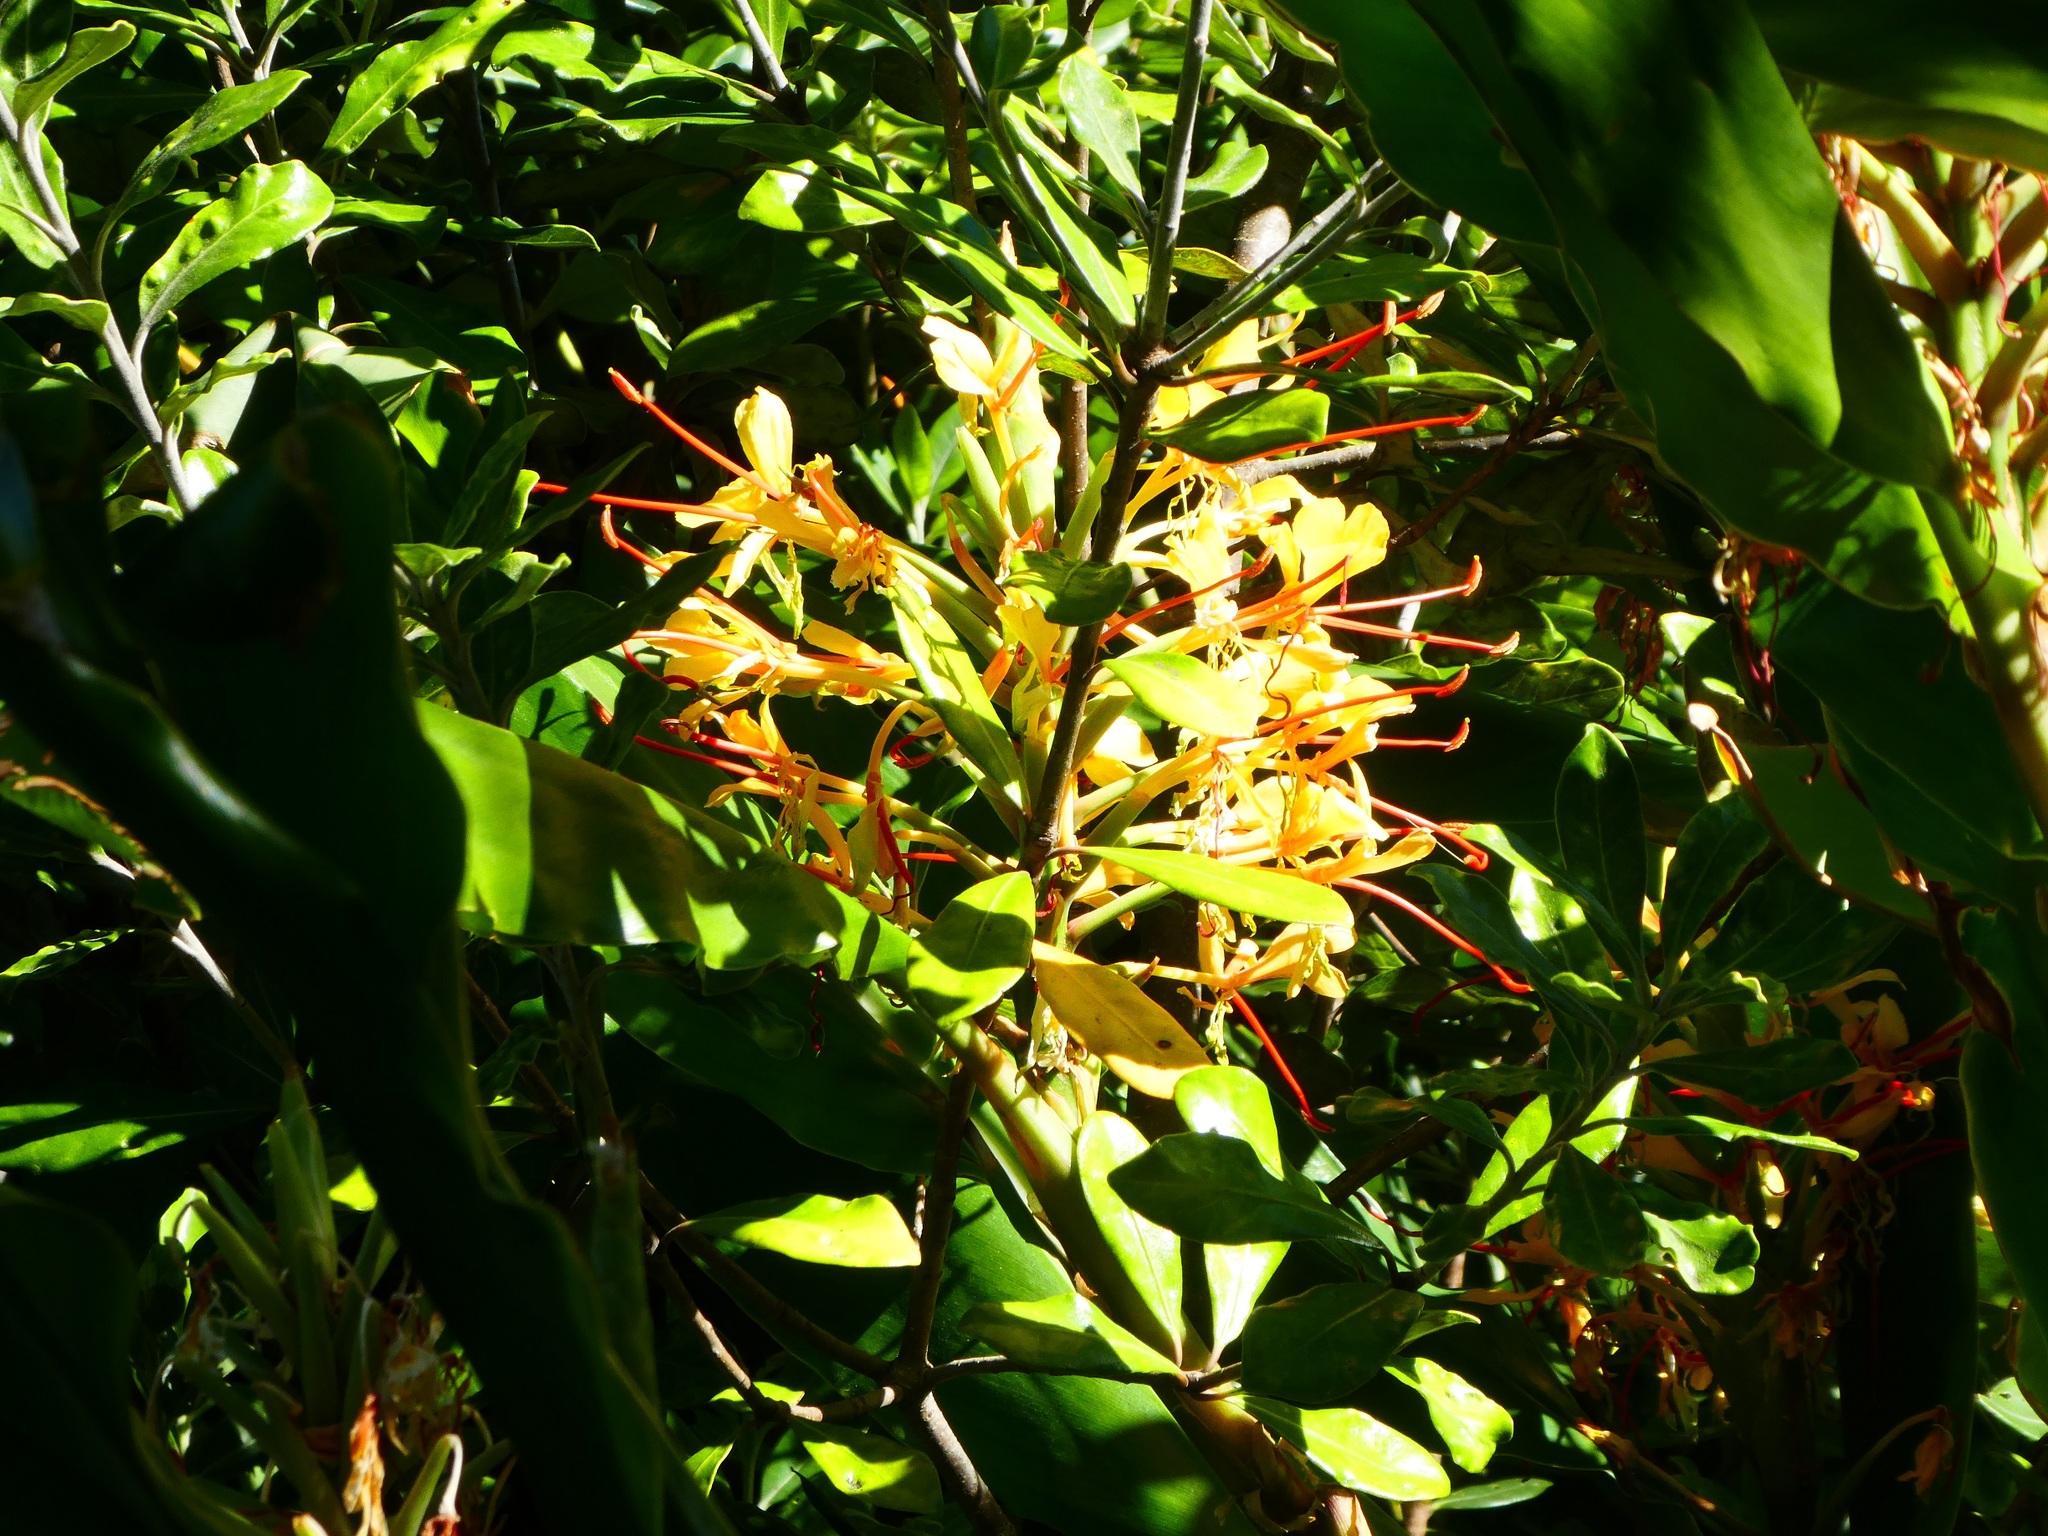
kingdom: Plantae
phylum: Tracheophyta
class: Liliopsida
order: Zingiberales
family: Zingiberaceae
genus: Hedychium
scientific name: Hedychium gardnerianum
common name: Himalayan ginger
